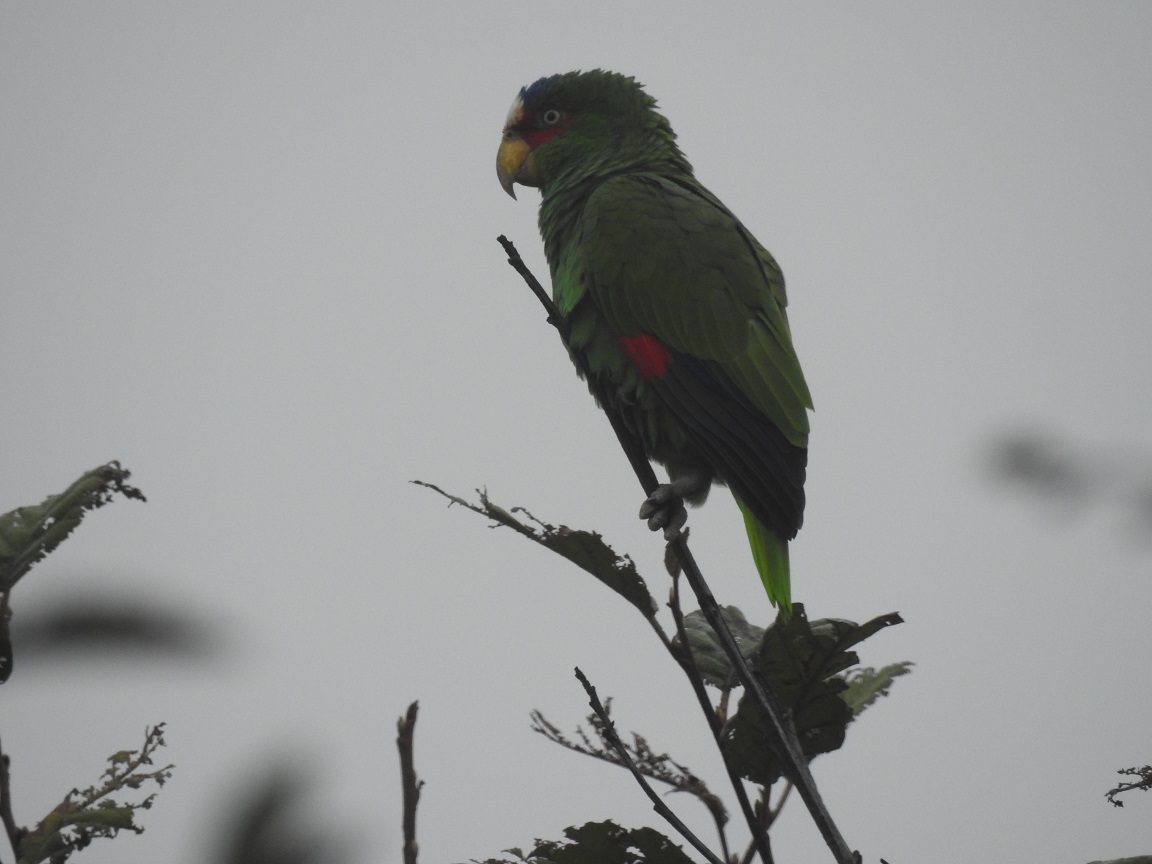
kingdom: Animalia
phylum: Chordata
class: Aves
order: Psittaciformes
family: Psittacidae
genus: Amazona
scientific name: Amazona albifrons
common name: White-fronted amazon
